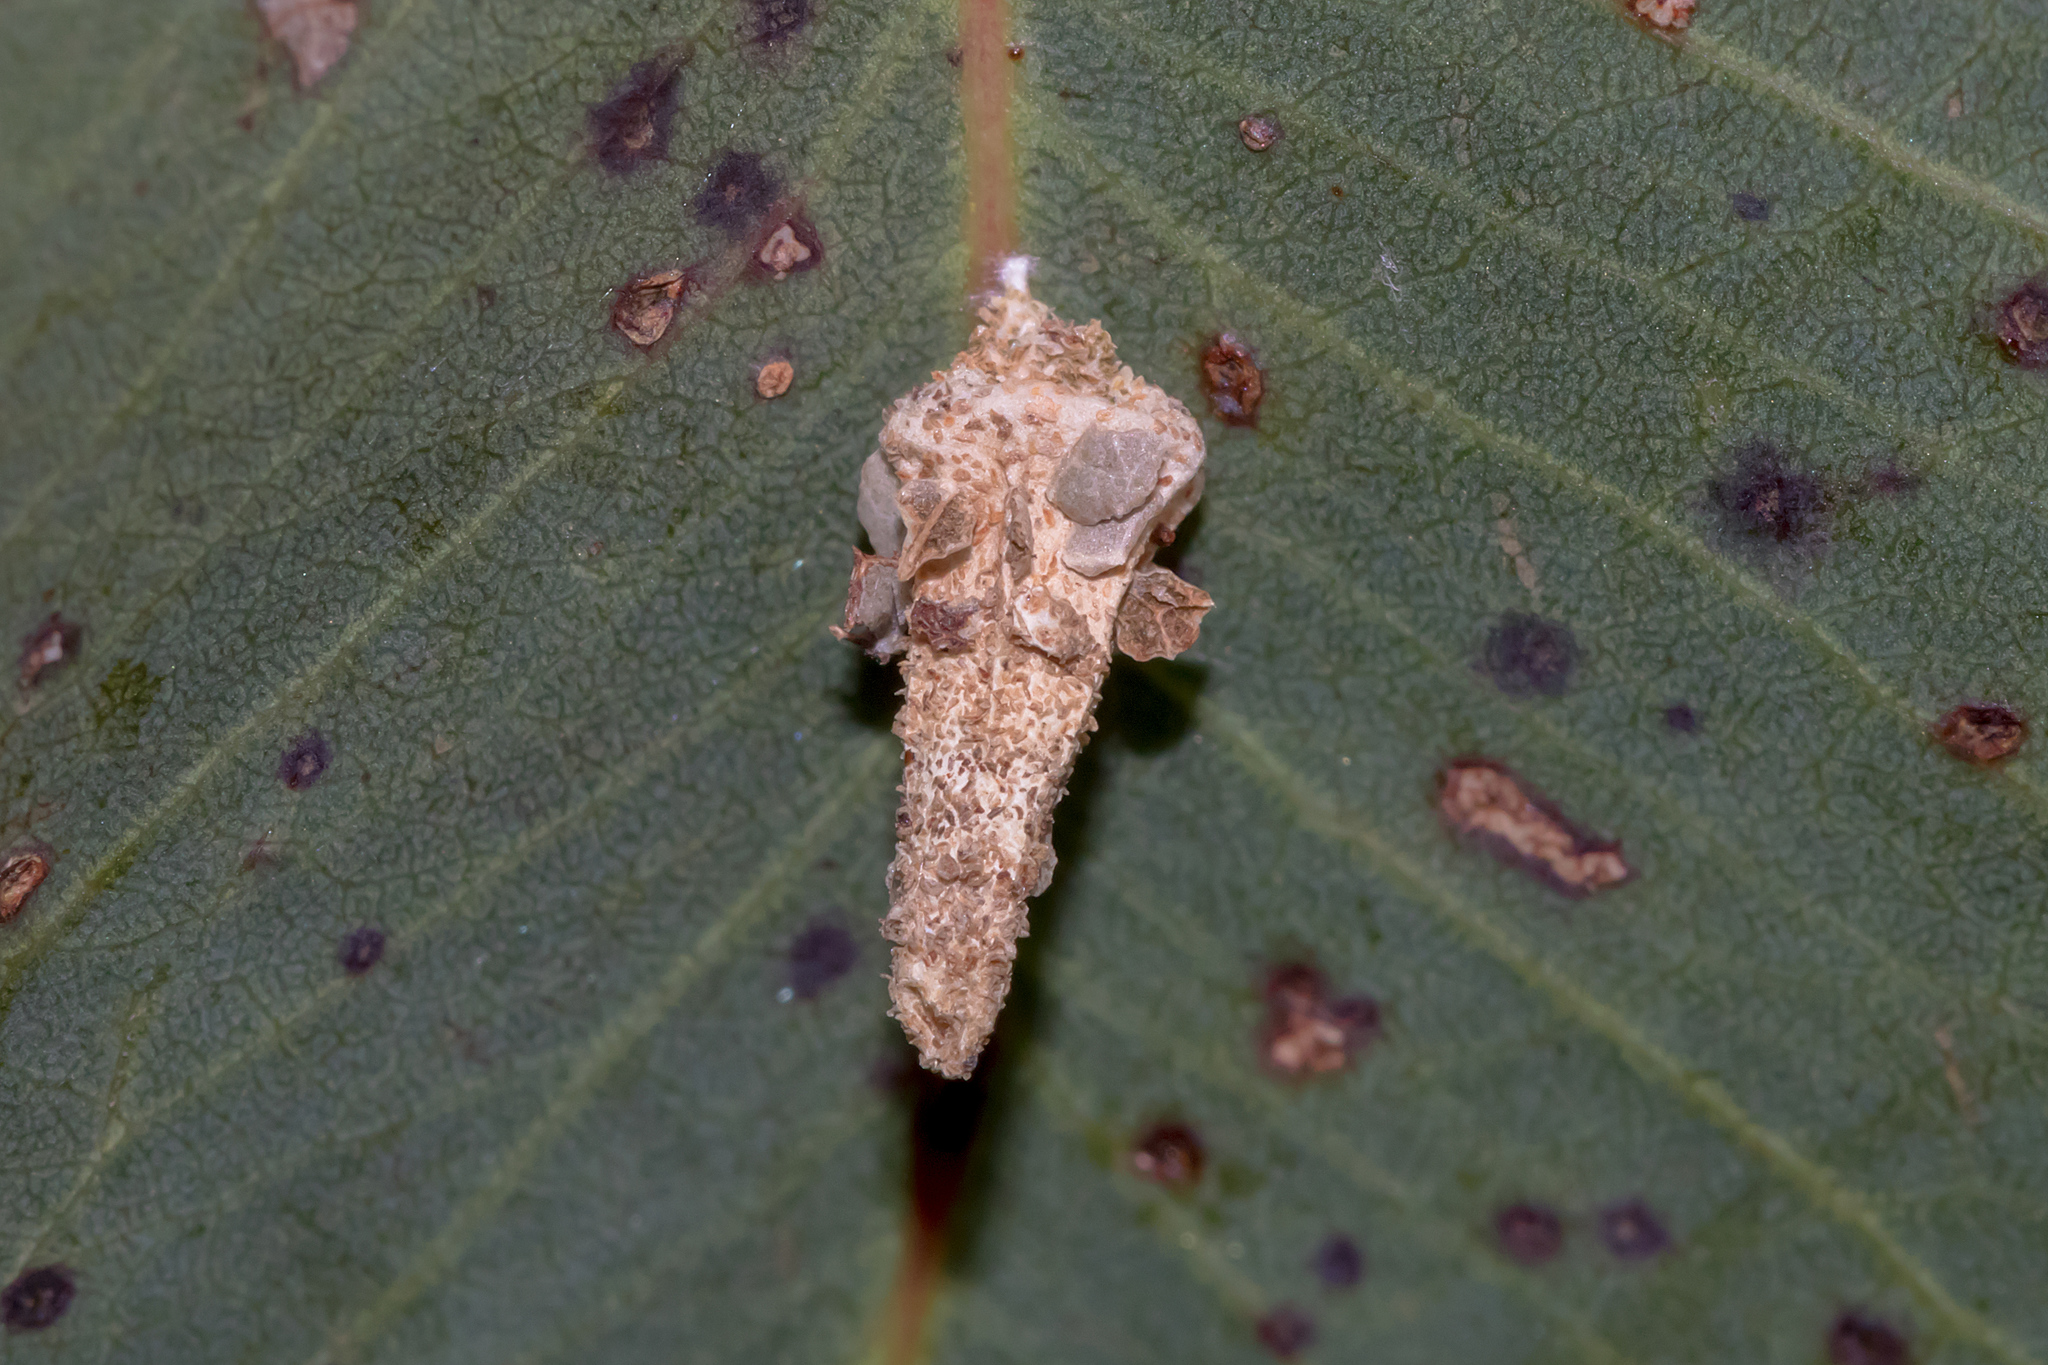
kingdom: Animalia
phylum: Arthropoda
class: Insecta
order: Lepidoptera
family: Psychidae
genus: Hyalarcta
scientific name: Hyalarcta nigrescens
